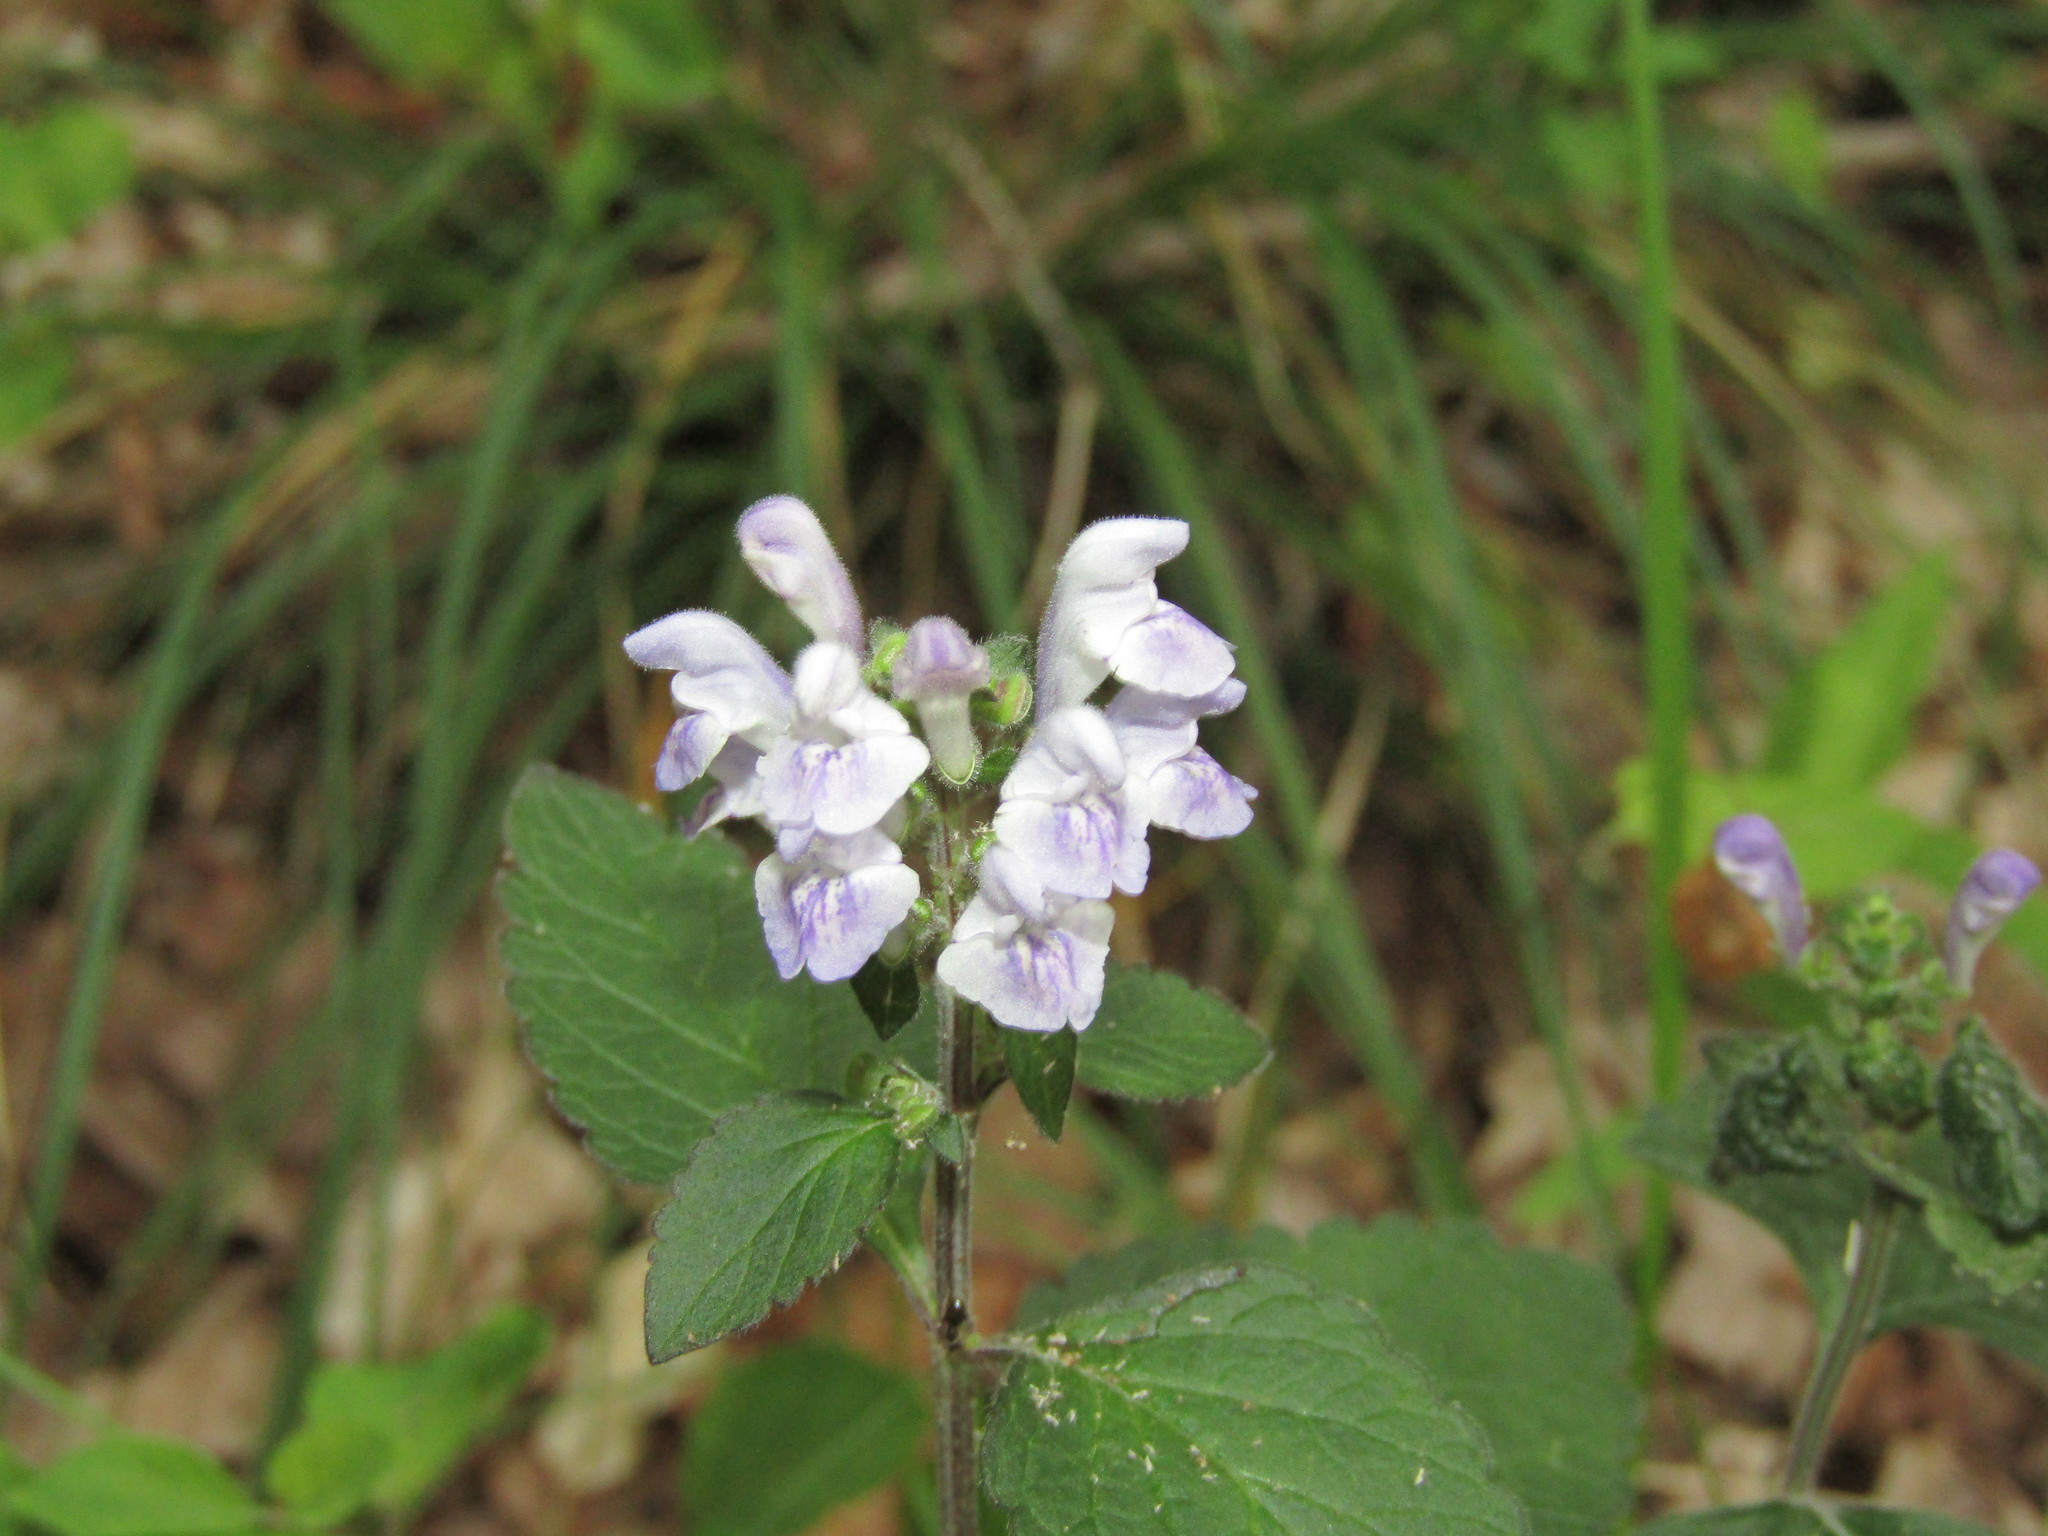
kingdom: Plantae
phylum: Tracheophyta
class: Magnoliopsida
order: Lamiales
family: Lamiaceae
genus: Scutellaria
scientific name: Scutellaria elliptica
